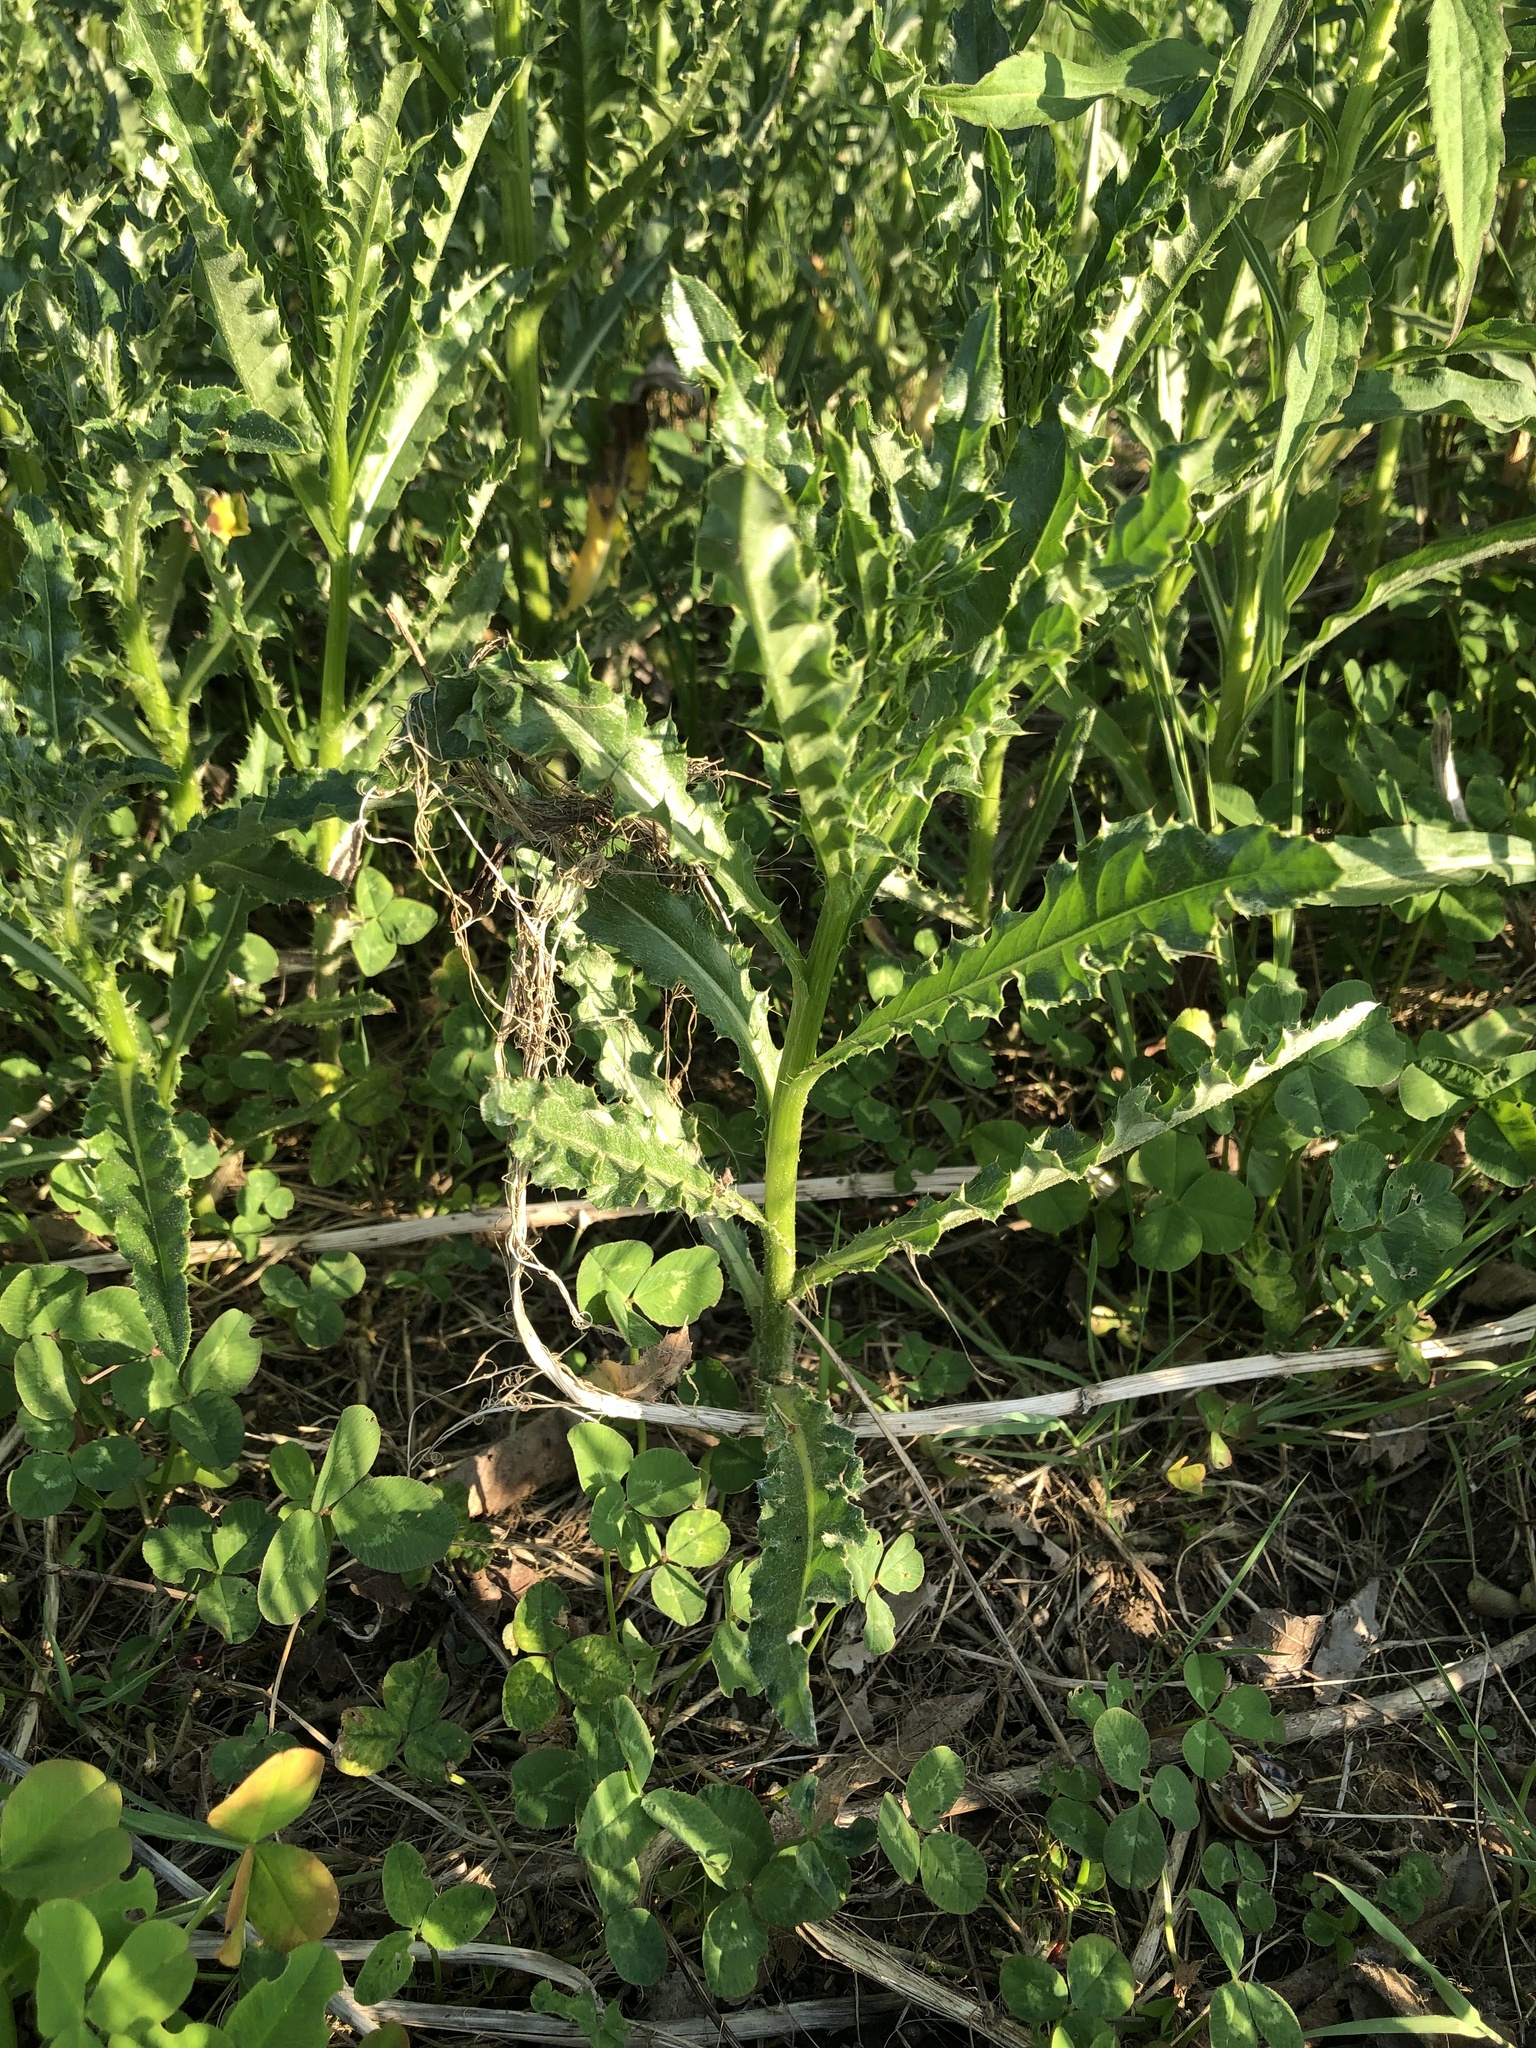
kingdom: Plantae
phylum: Tracheophyta
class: Magnoliopsida
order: Asterales
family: Asteraceae
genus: Cirsium
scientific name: Cirsium arvense
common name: Creeping thistle
